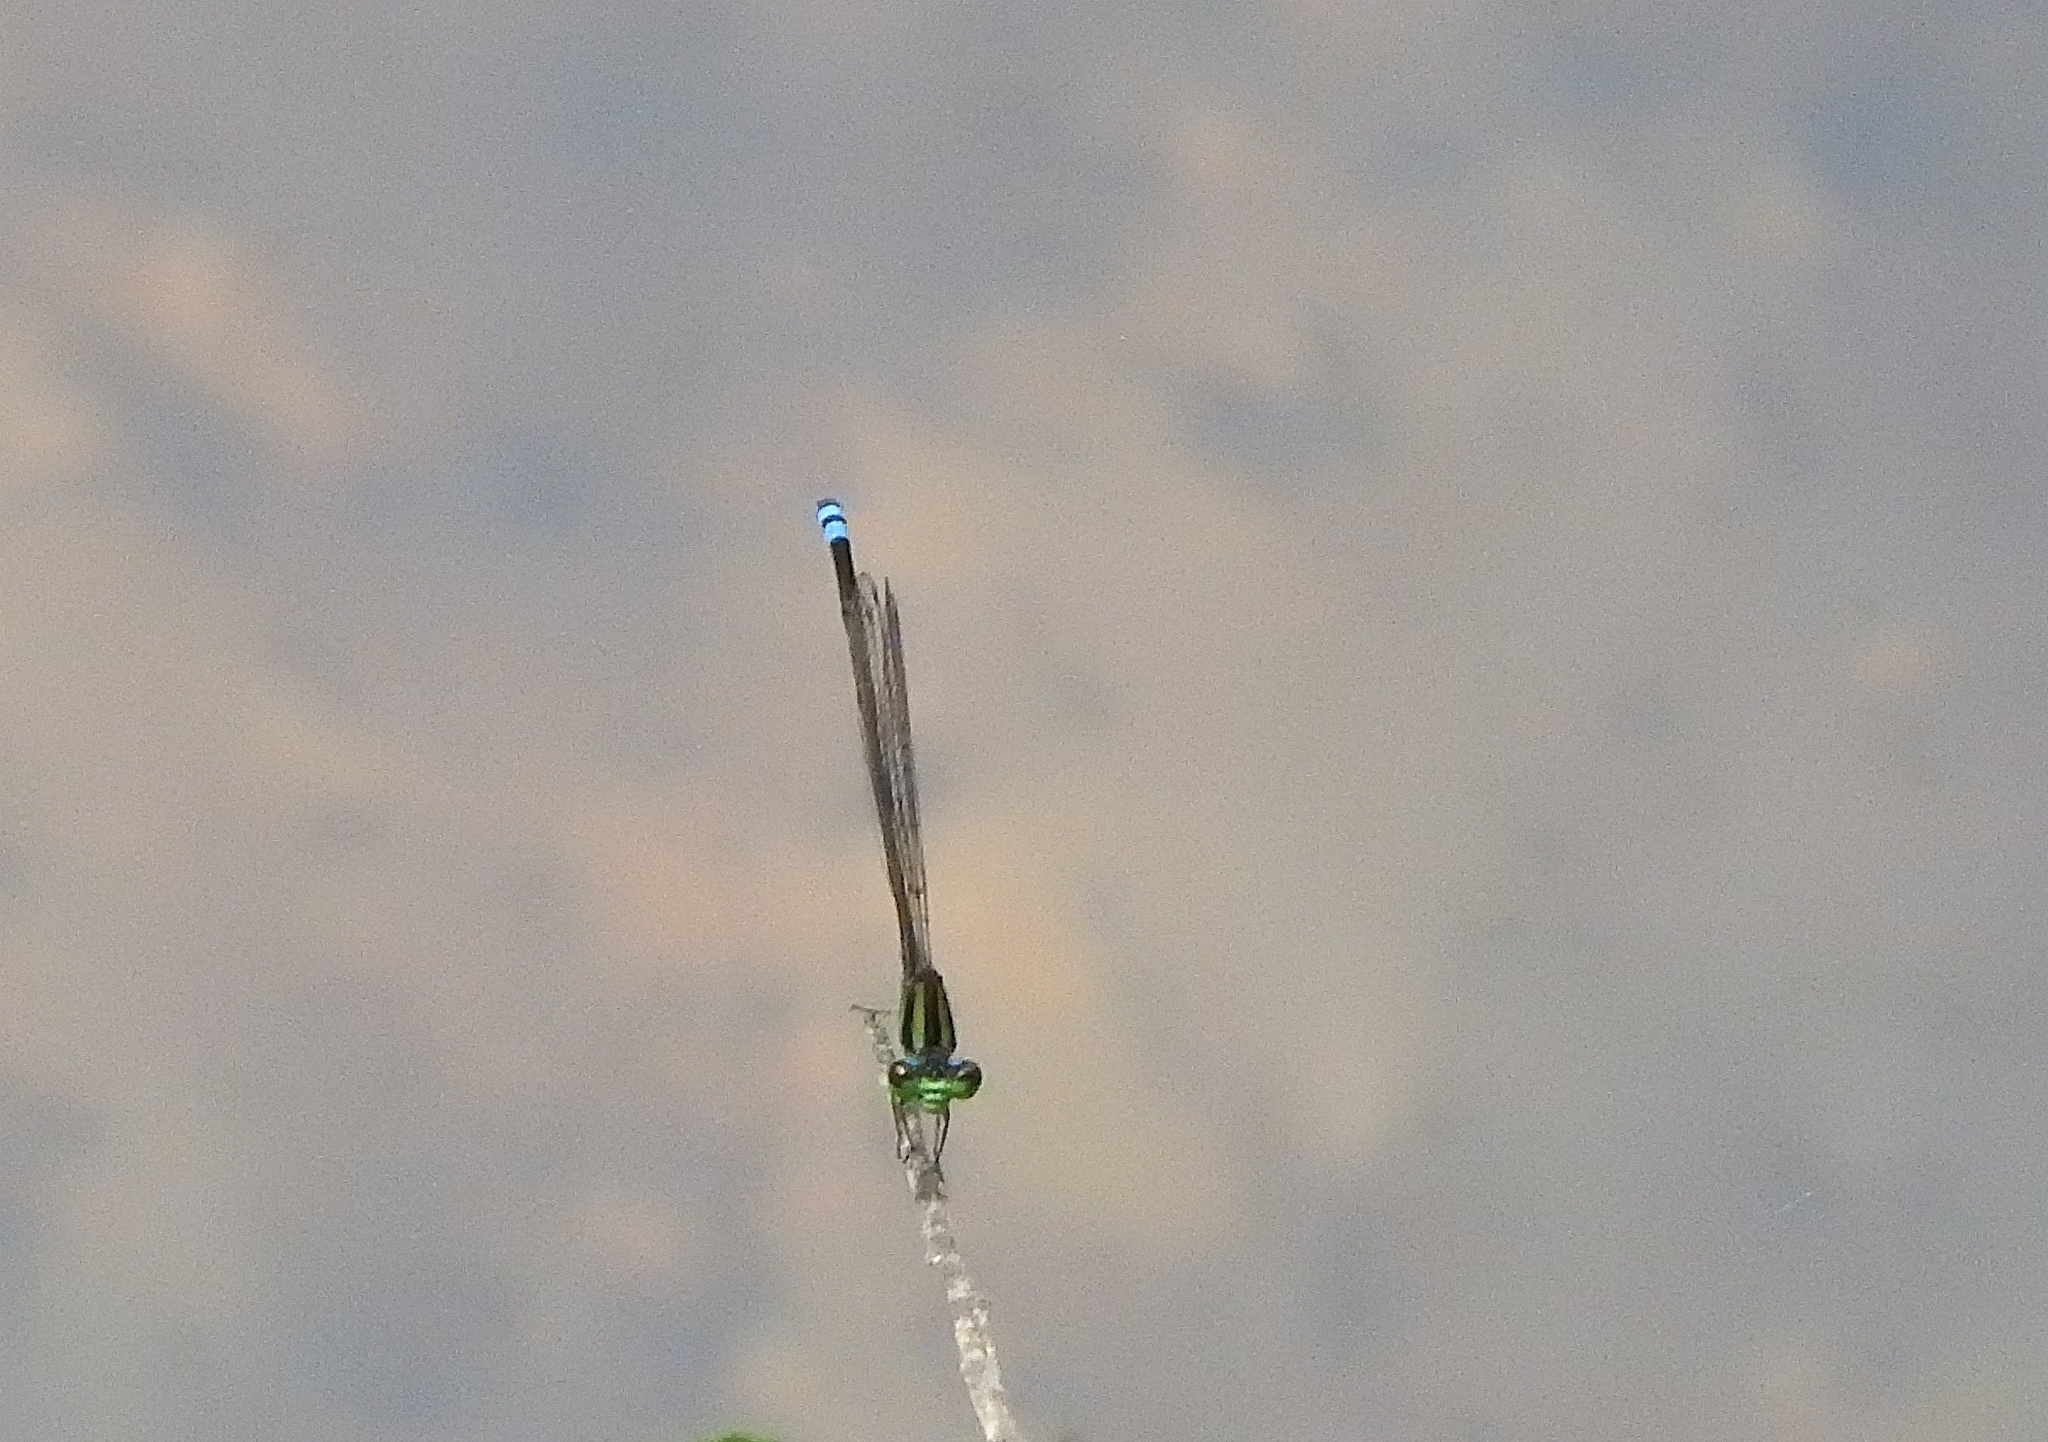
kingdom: Animalia
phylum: Arthropoda
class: Insecta
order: Odonata
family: Coenagrionidae
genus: Pseudagrion
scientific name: Pseudagrion indicum
